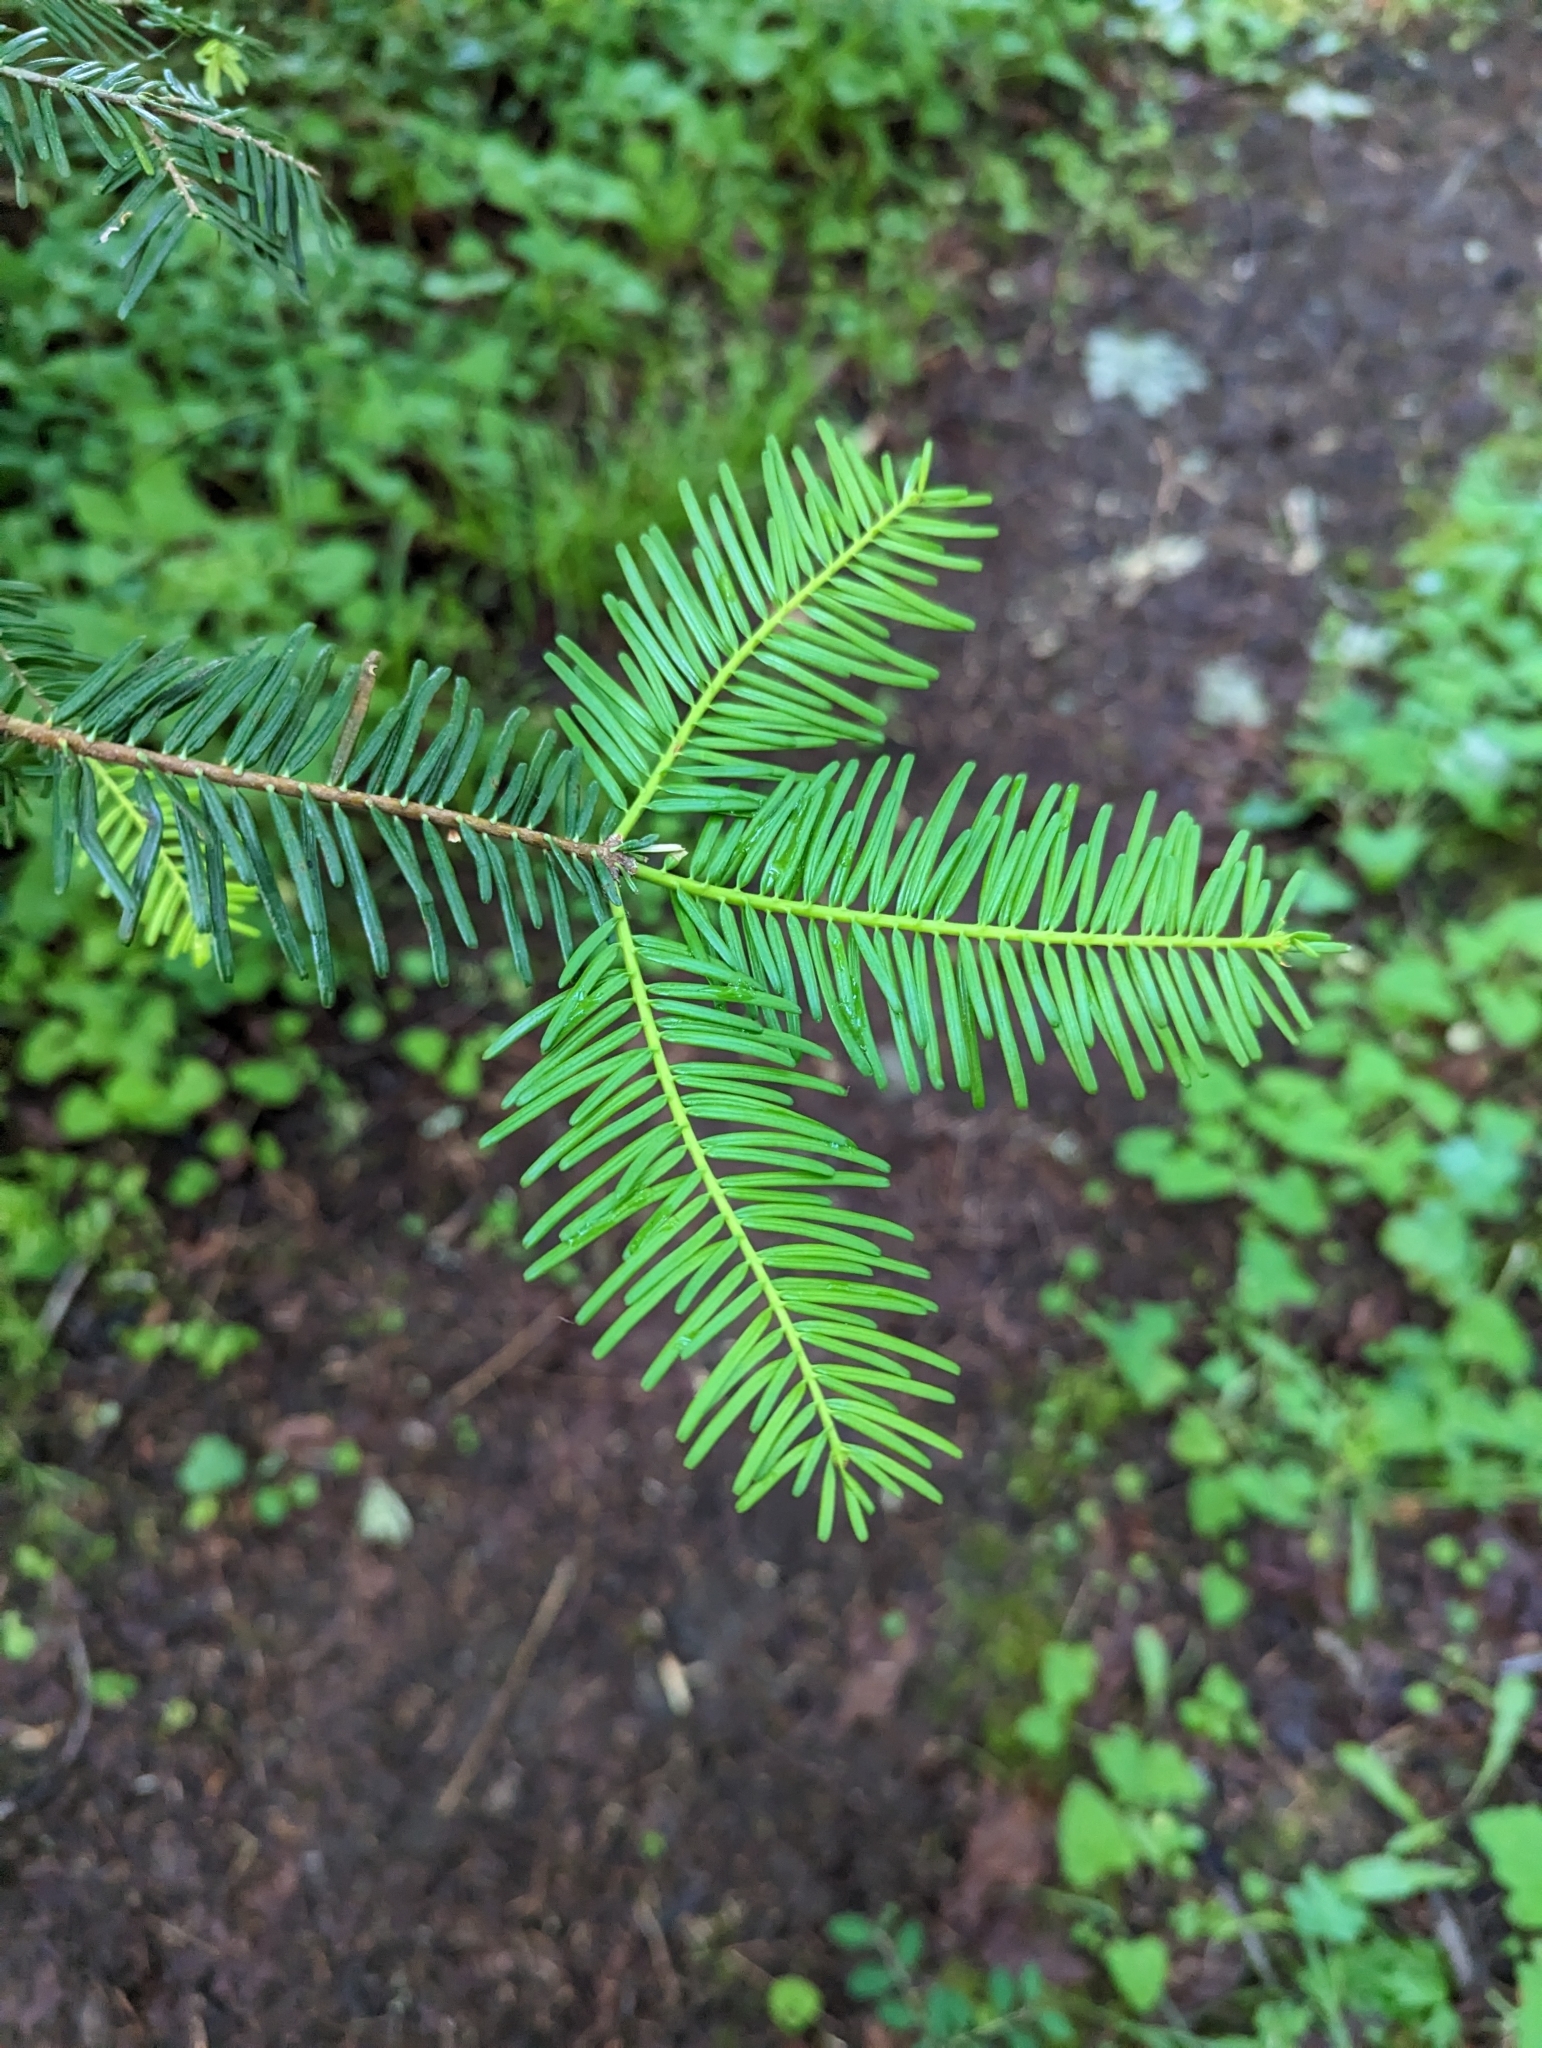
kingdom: Plantae
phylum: Tracheophyta
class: Pinopsida
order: Pinales
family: Pinaceae
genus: Abies
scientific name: Abies grandis
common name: Giant fir
